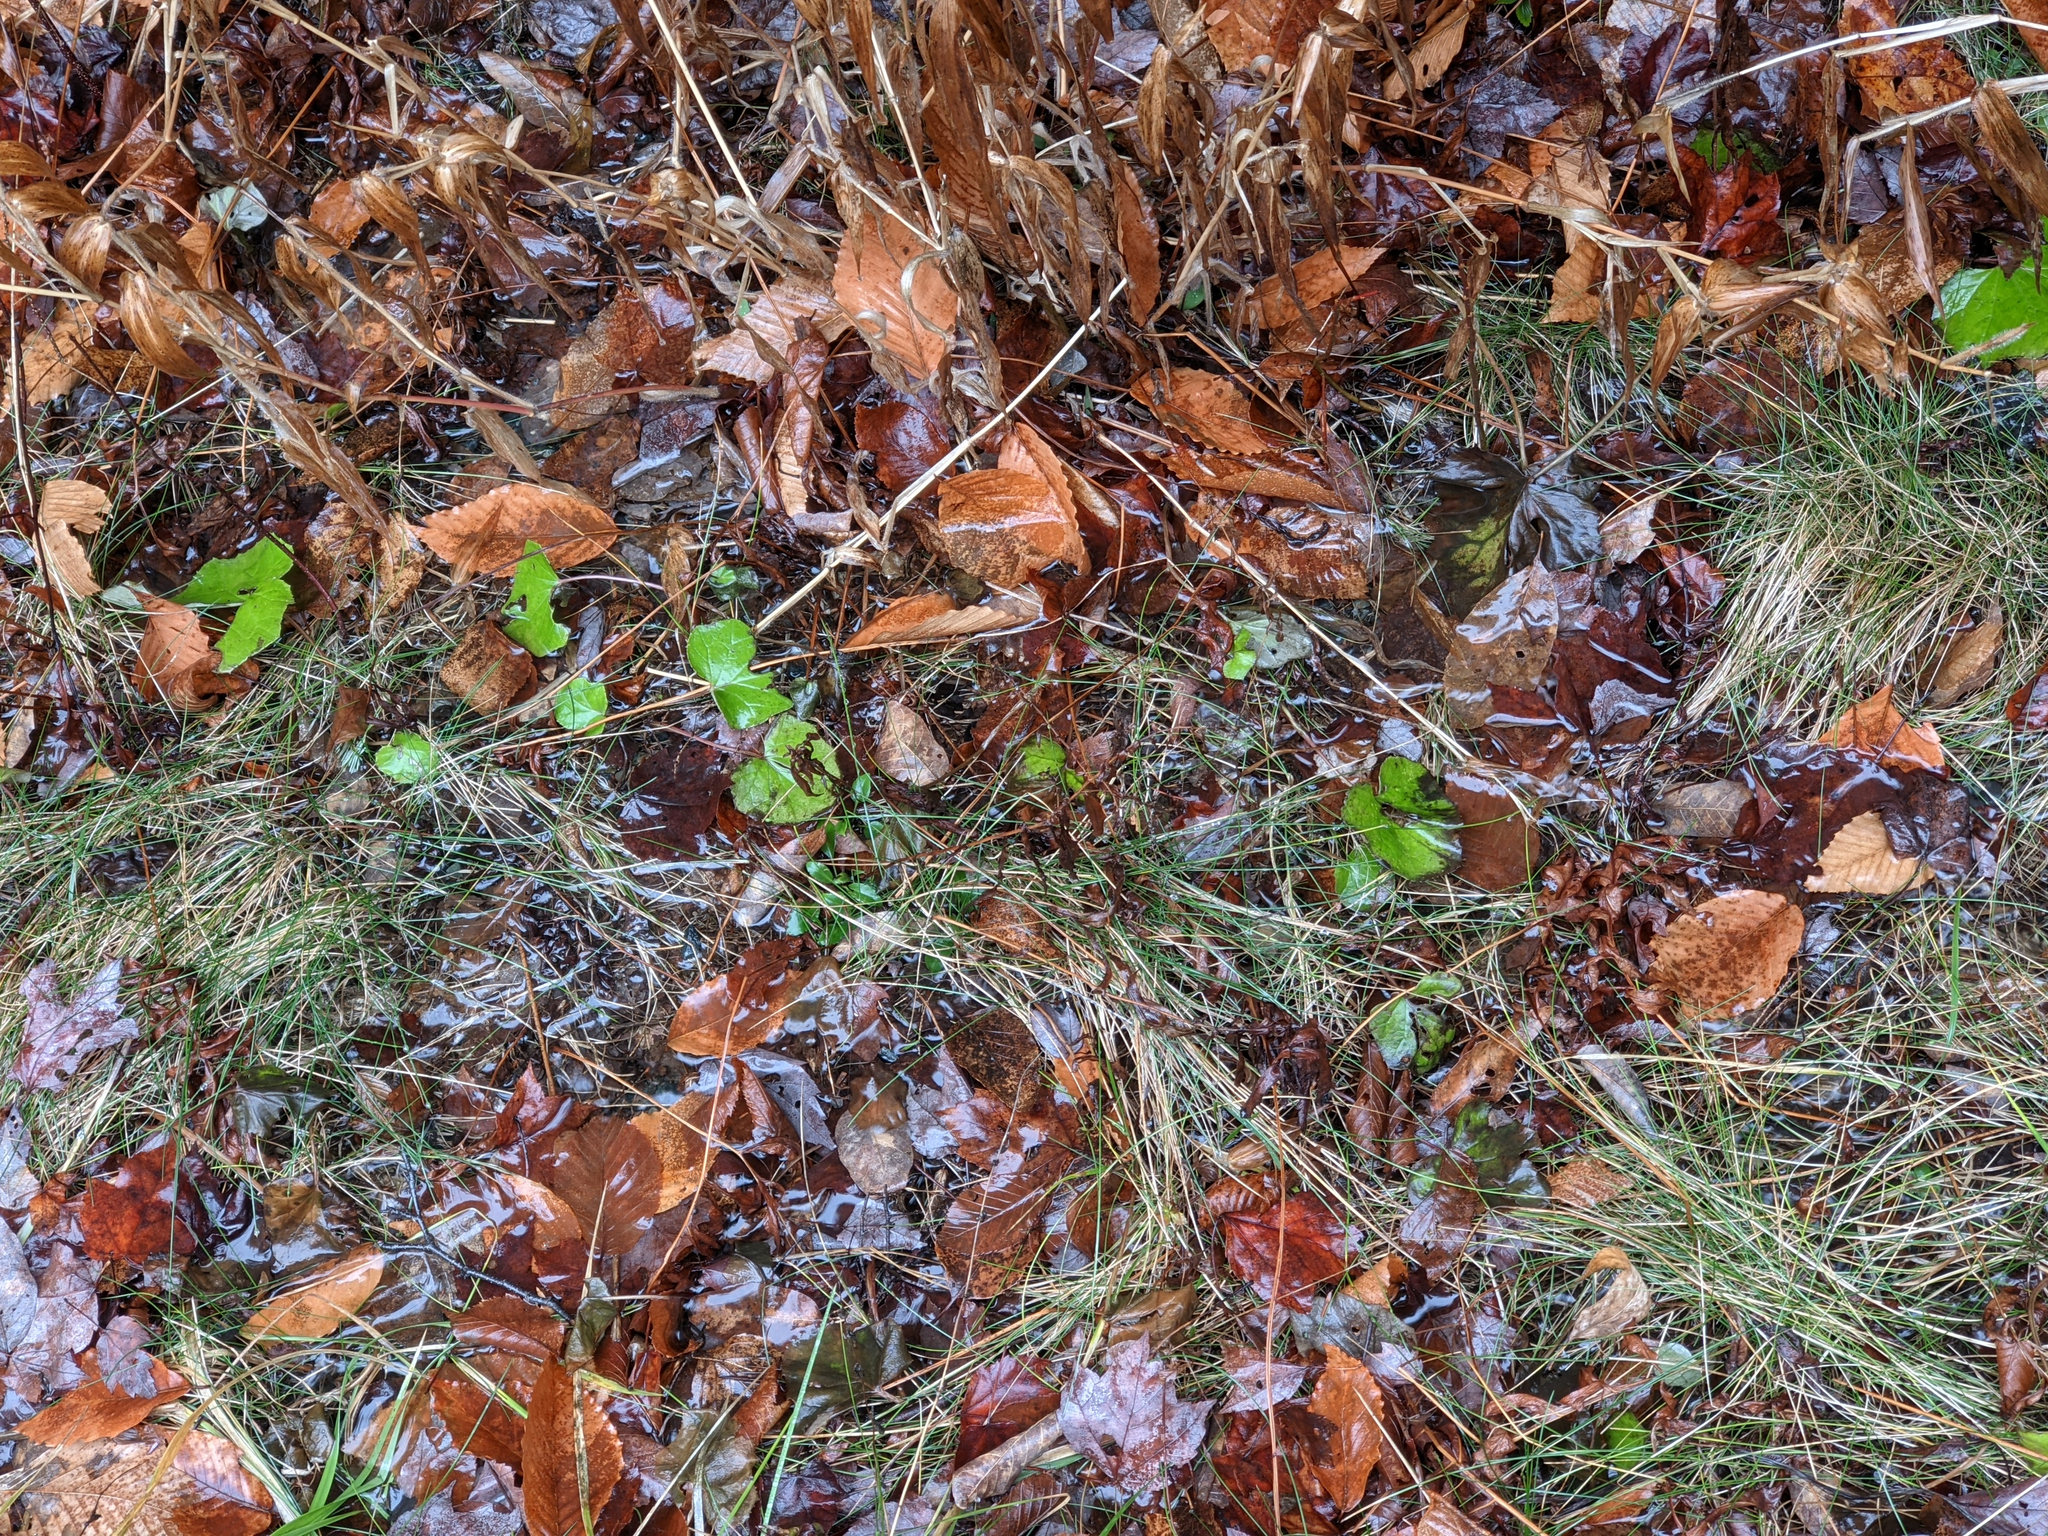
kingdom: Plantae
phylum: Tracheophyta
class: Magnoliopsida
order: Asterales
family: Asteraceae
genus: Tussilago
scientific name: Tussilago farfara
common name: Coltsfoot
